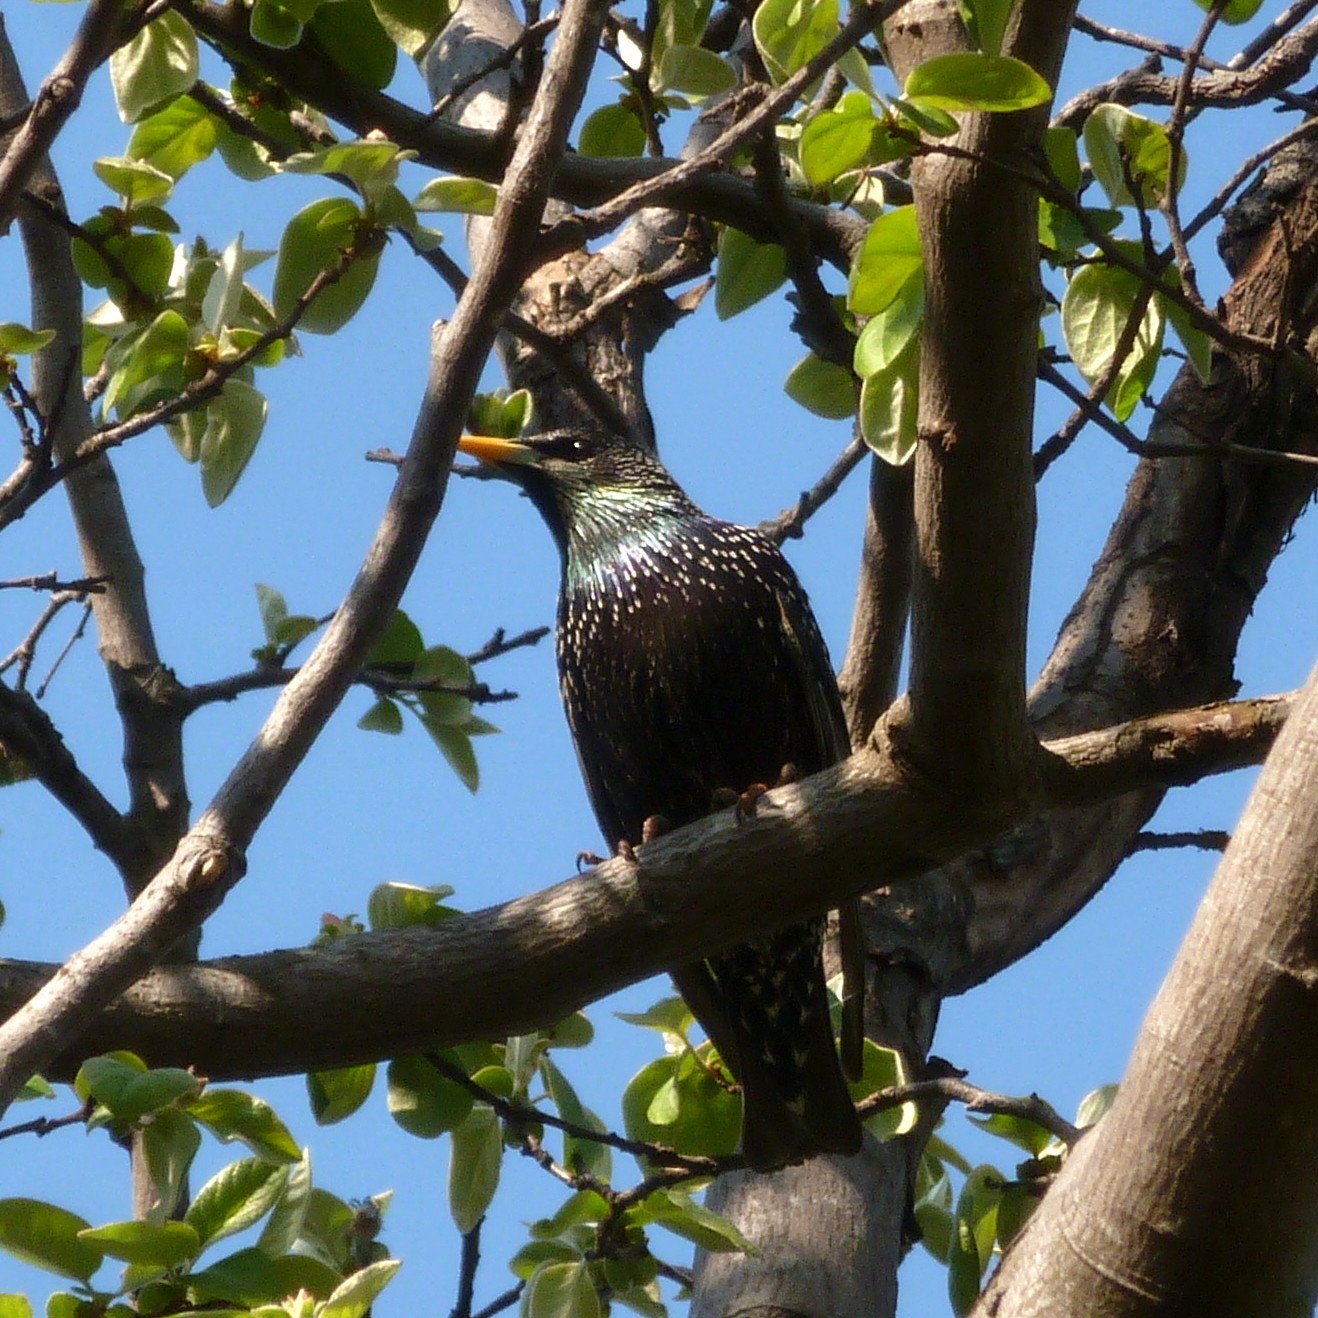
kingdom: Animalia
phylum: Chordata
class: Aves
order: Passeriformes
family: Sturnidae
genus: Sturnus
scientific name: Sturnus vulgaris
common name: Common starling
